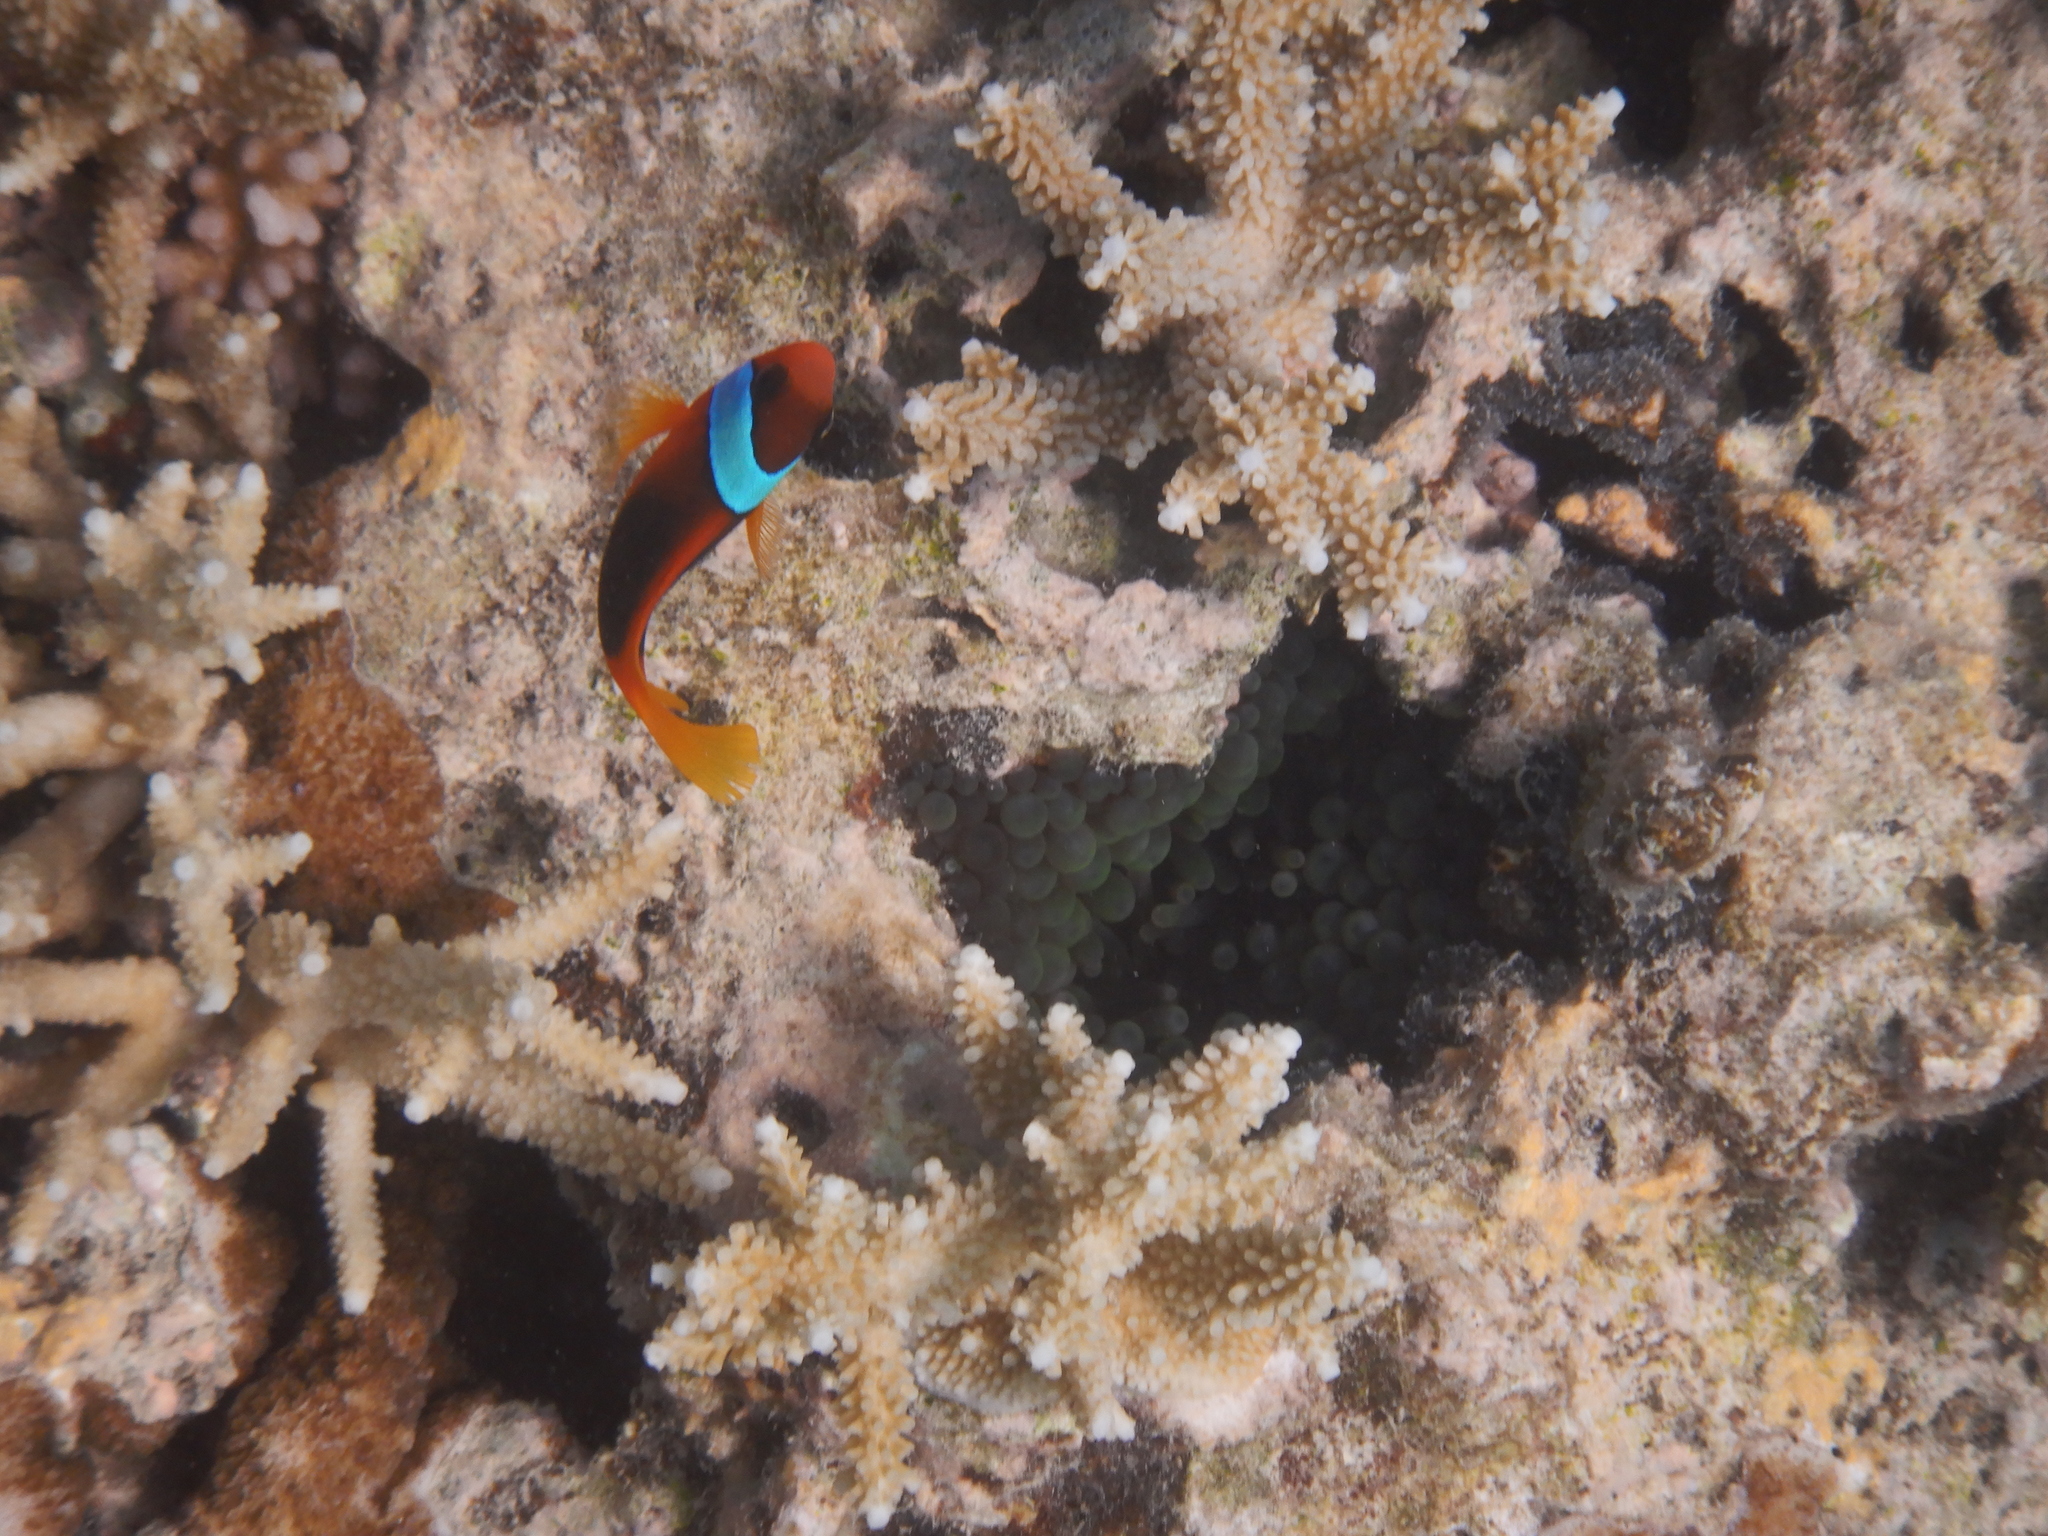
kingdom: Animalia
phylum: Chordata
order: Perciformes
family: Pomacentridae
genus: Amphiprion
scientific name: Amphiprion melanopus
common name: Black anemonefish
